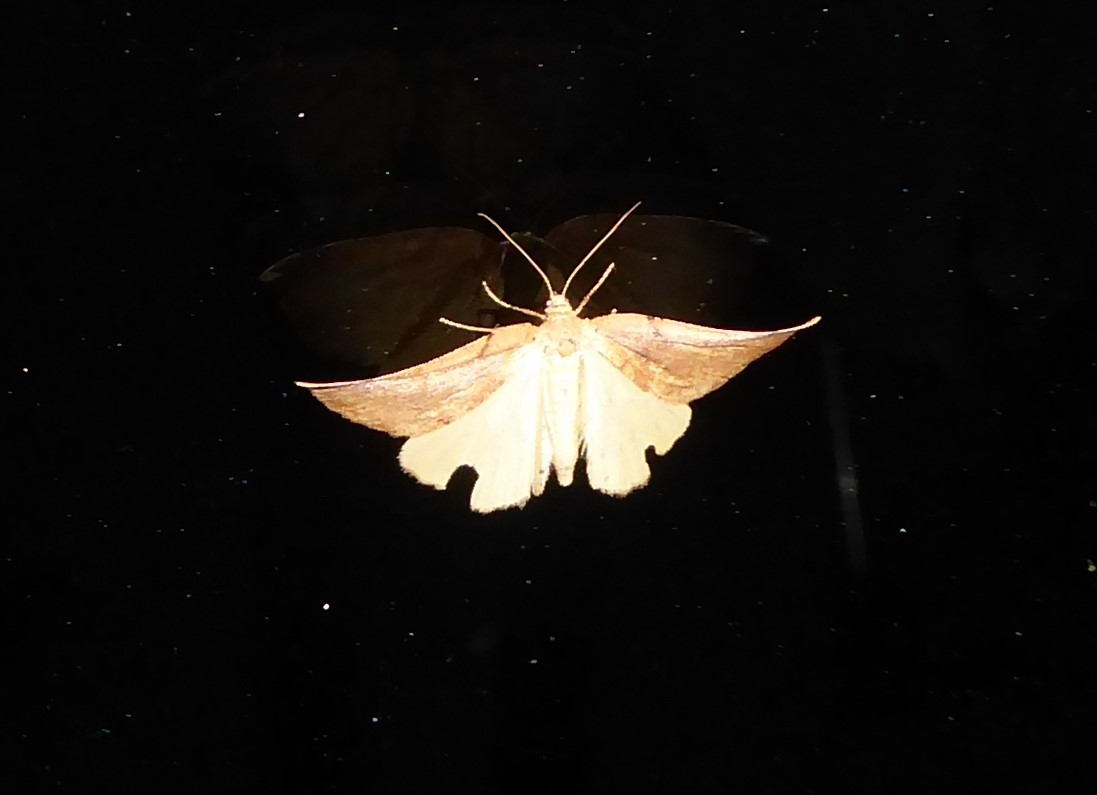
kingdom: Animalia
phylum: Arthropoda
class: Insecta
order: Lepidoptera
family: Geometridae
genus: Sestra
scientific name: Sestra humeraria
